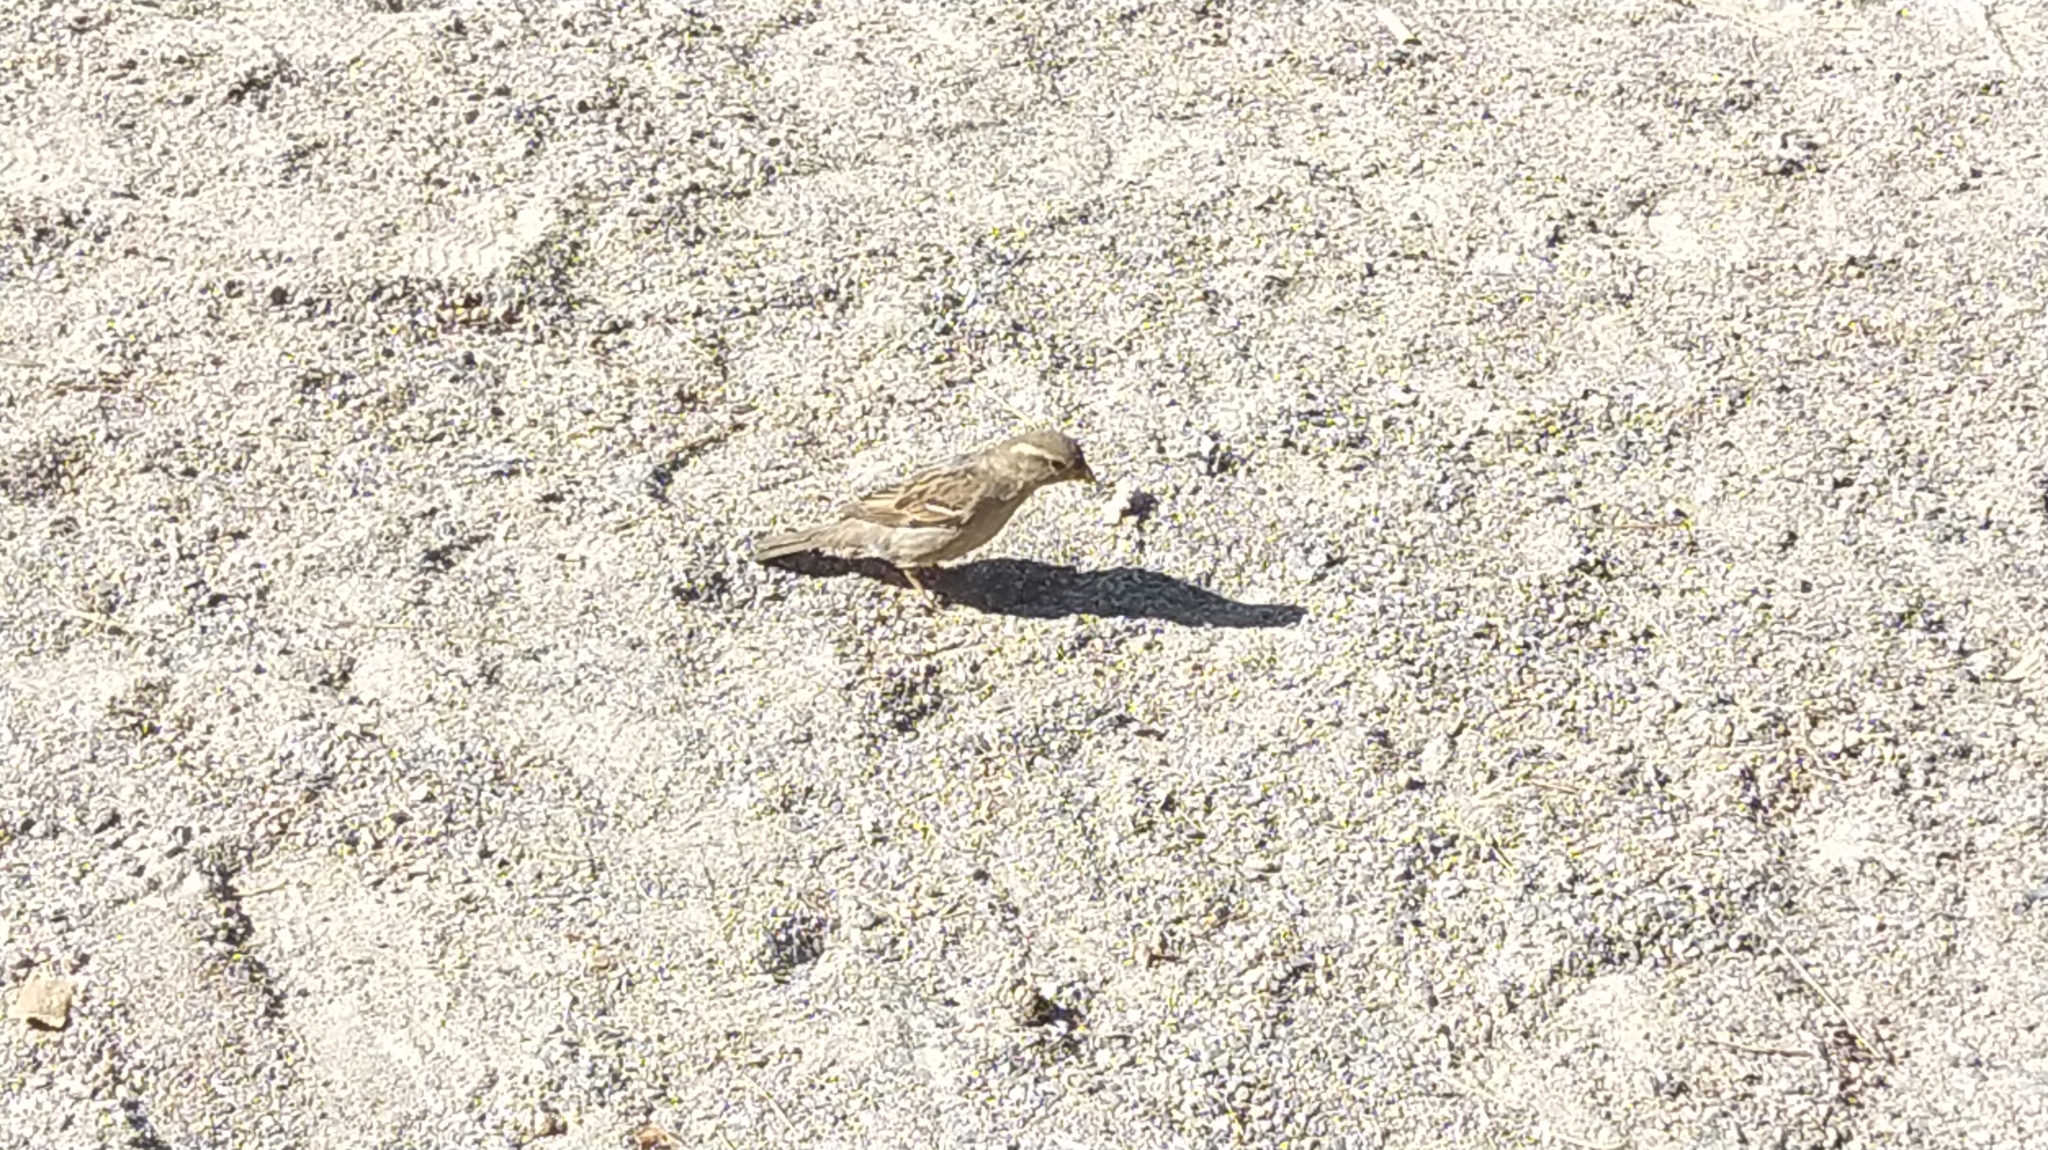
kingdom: Animalia
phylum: Chordata
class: Aves
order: Passeriformes
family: Passeridae
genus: Passer
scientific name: Passer domesticus
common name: House sparrow
